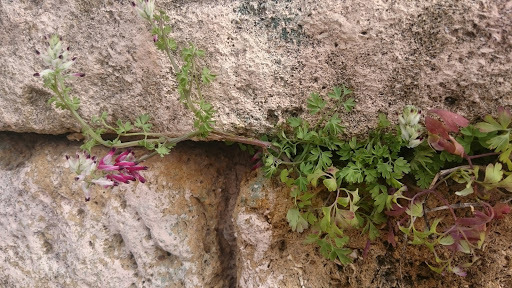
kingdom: Plantae
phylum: Tracheophyta
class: Magnoliopsida
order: Ranunculales
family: Papaveraceae
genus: Fumaria
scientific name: Fumaria capreolata
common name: White ramping-fumitory
